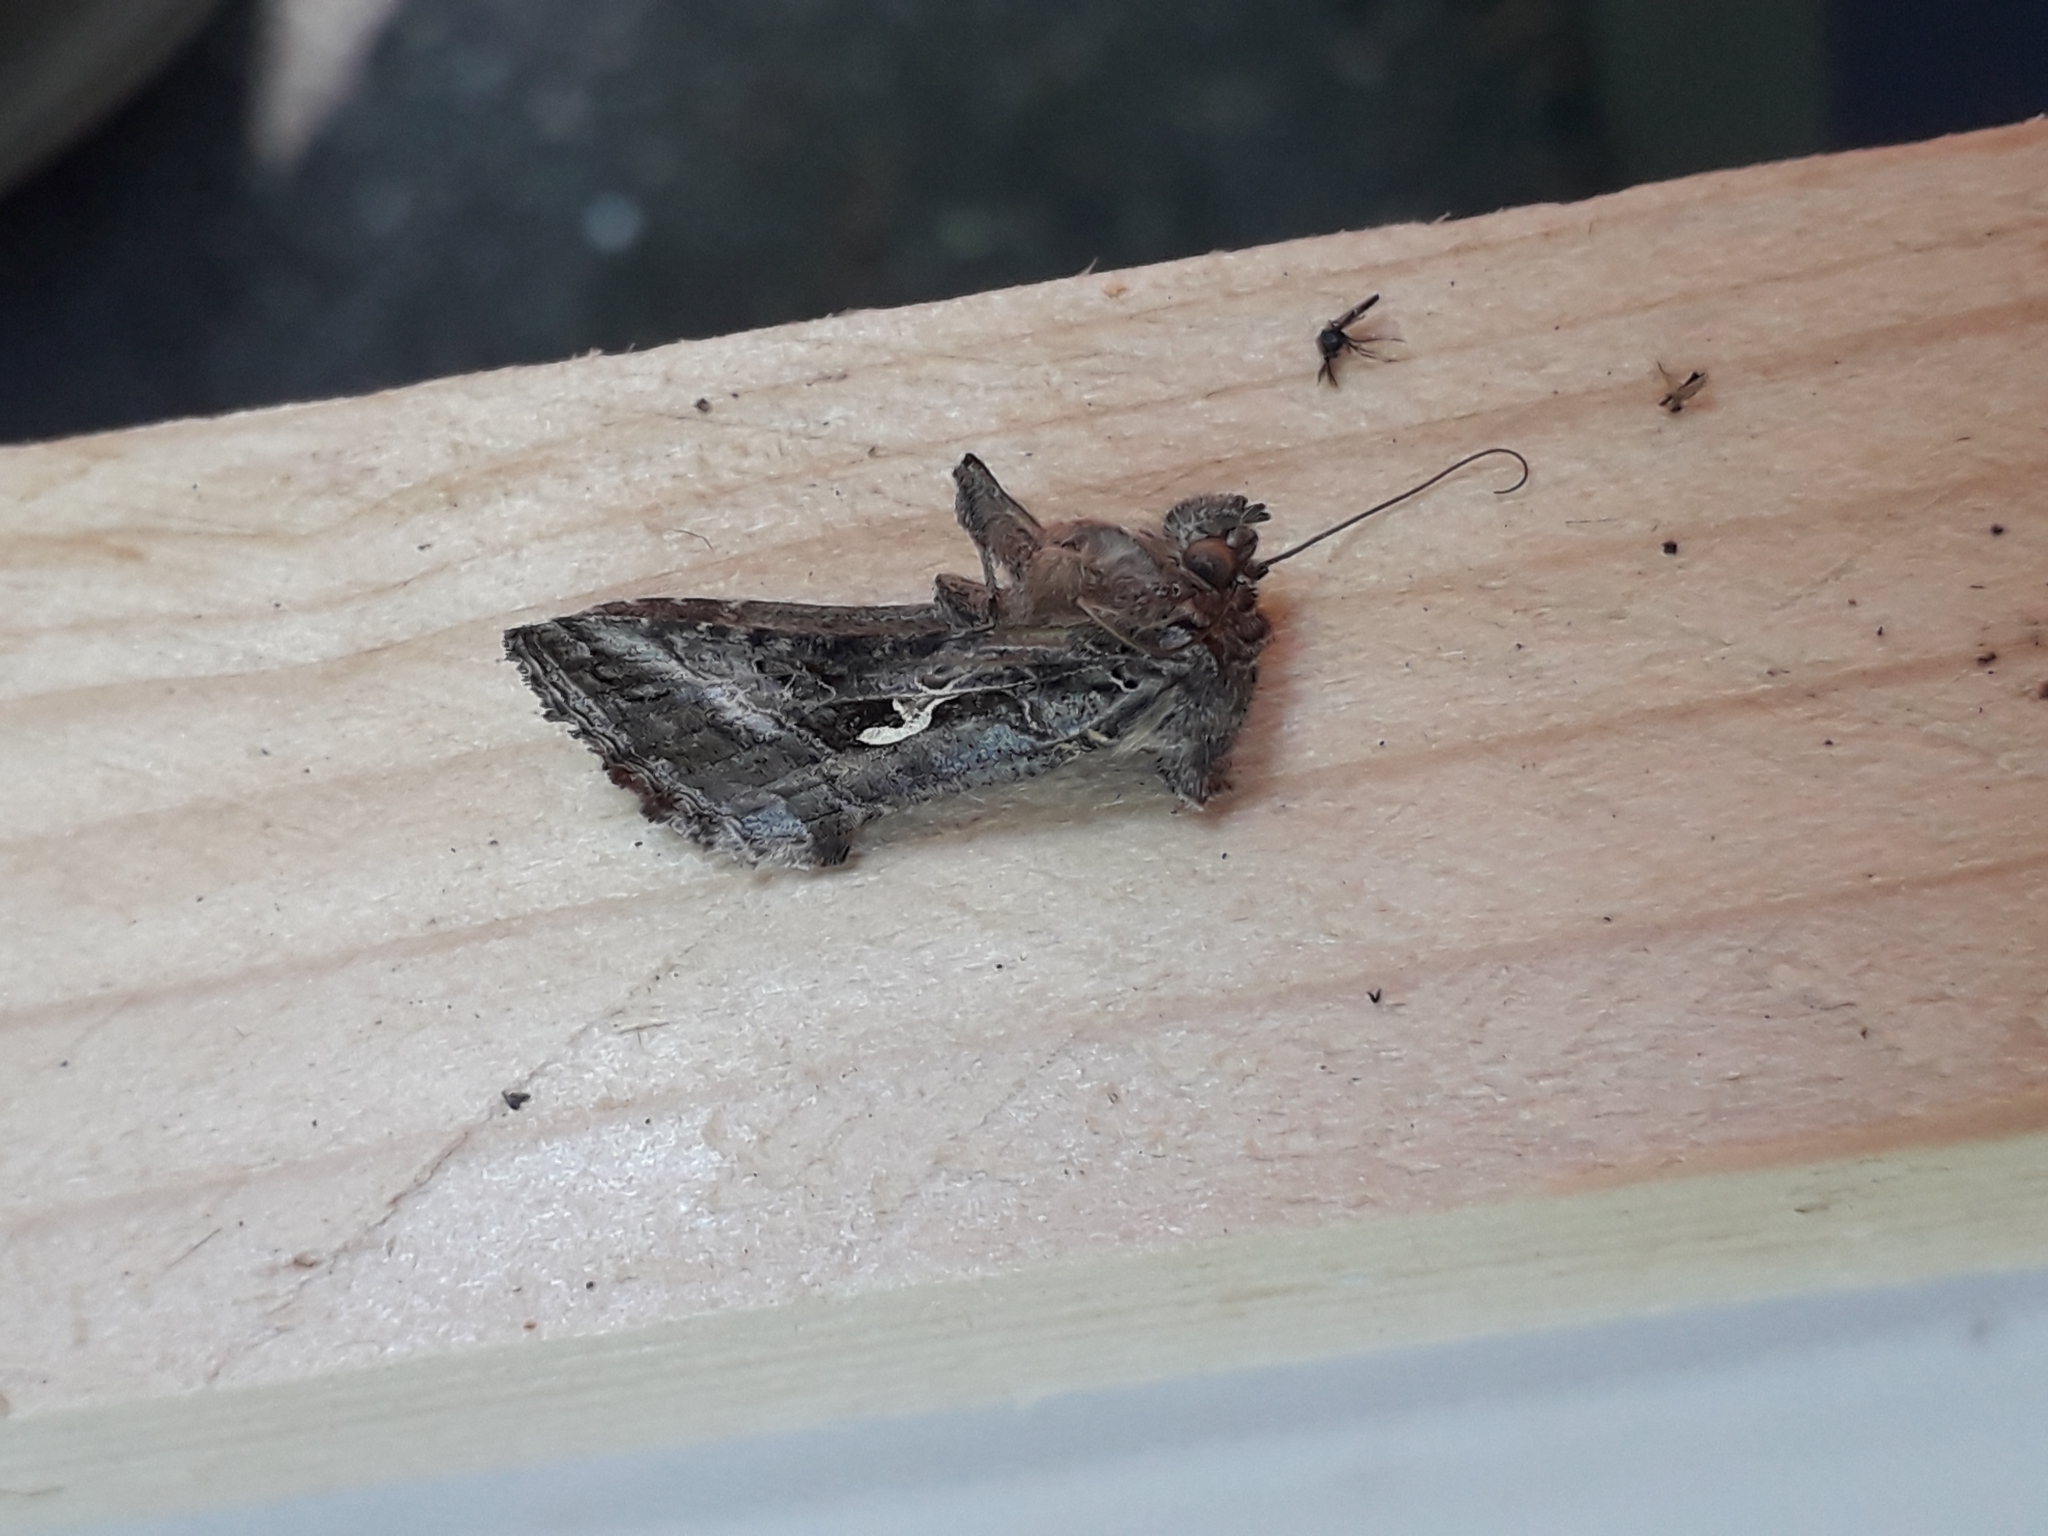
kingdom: Animalia
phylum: Arthropoda
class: Insecta
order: Lepidoptera
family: Noctuidae
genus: Autographa
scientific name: Autographa gamma
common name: Silver y
